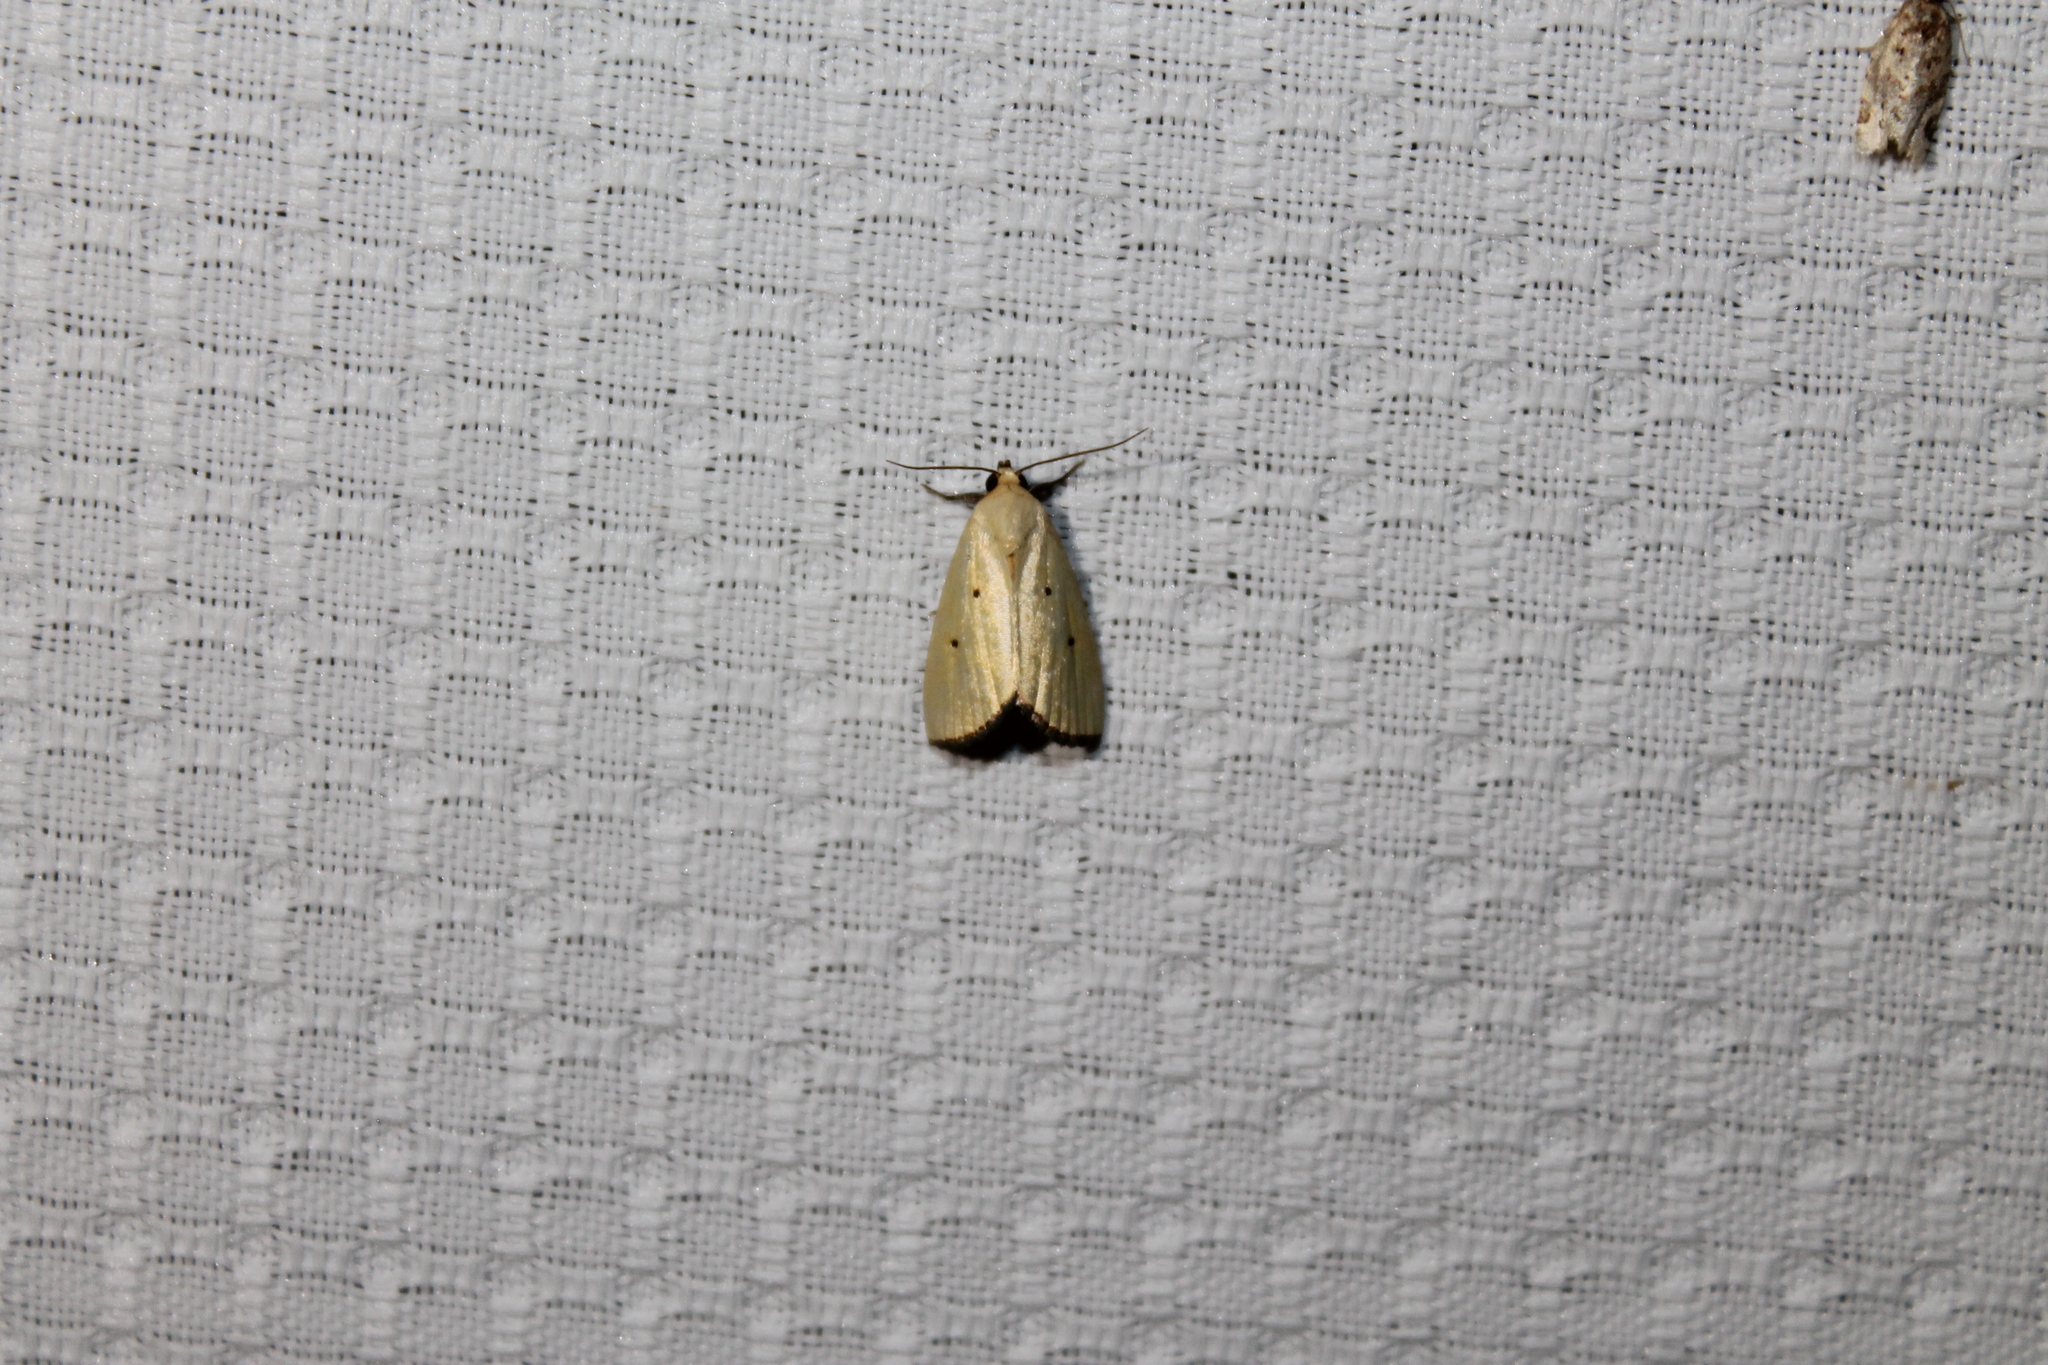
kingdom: Animalia
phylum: Arthropoda
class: Insecta
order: Lepidoptera
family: Noctuidae
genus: Marimatha
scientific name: Marimatha nigrofimbria
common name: Black-bordered lemon moth
